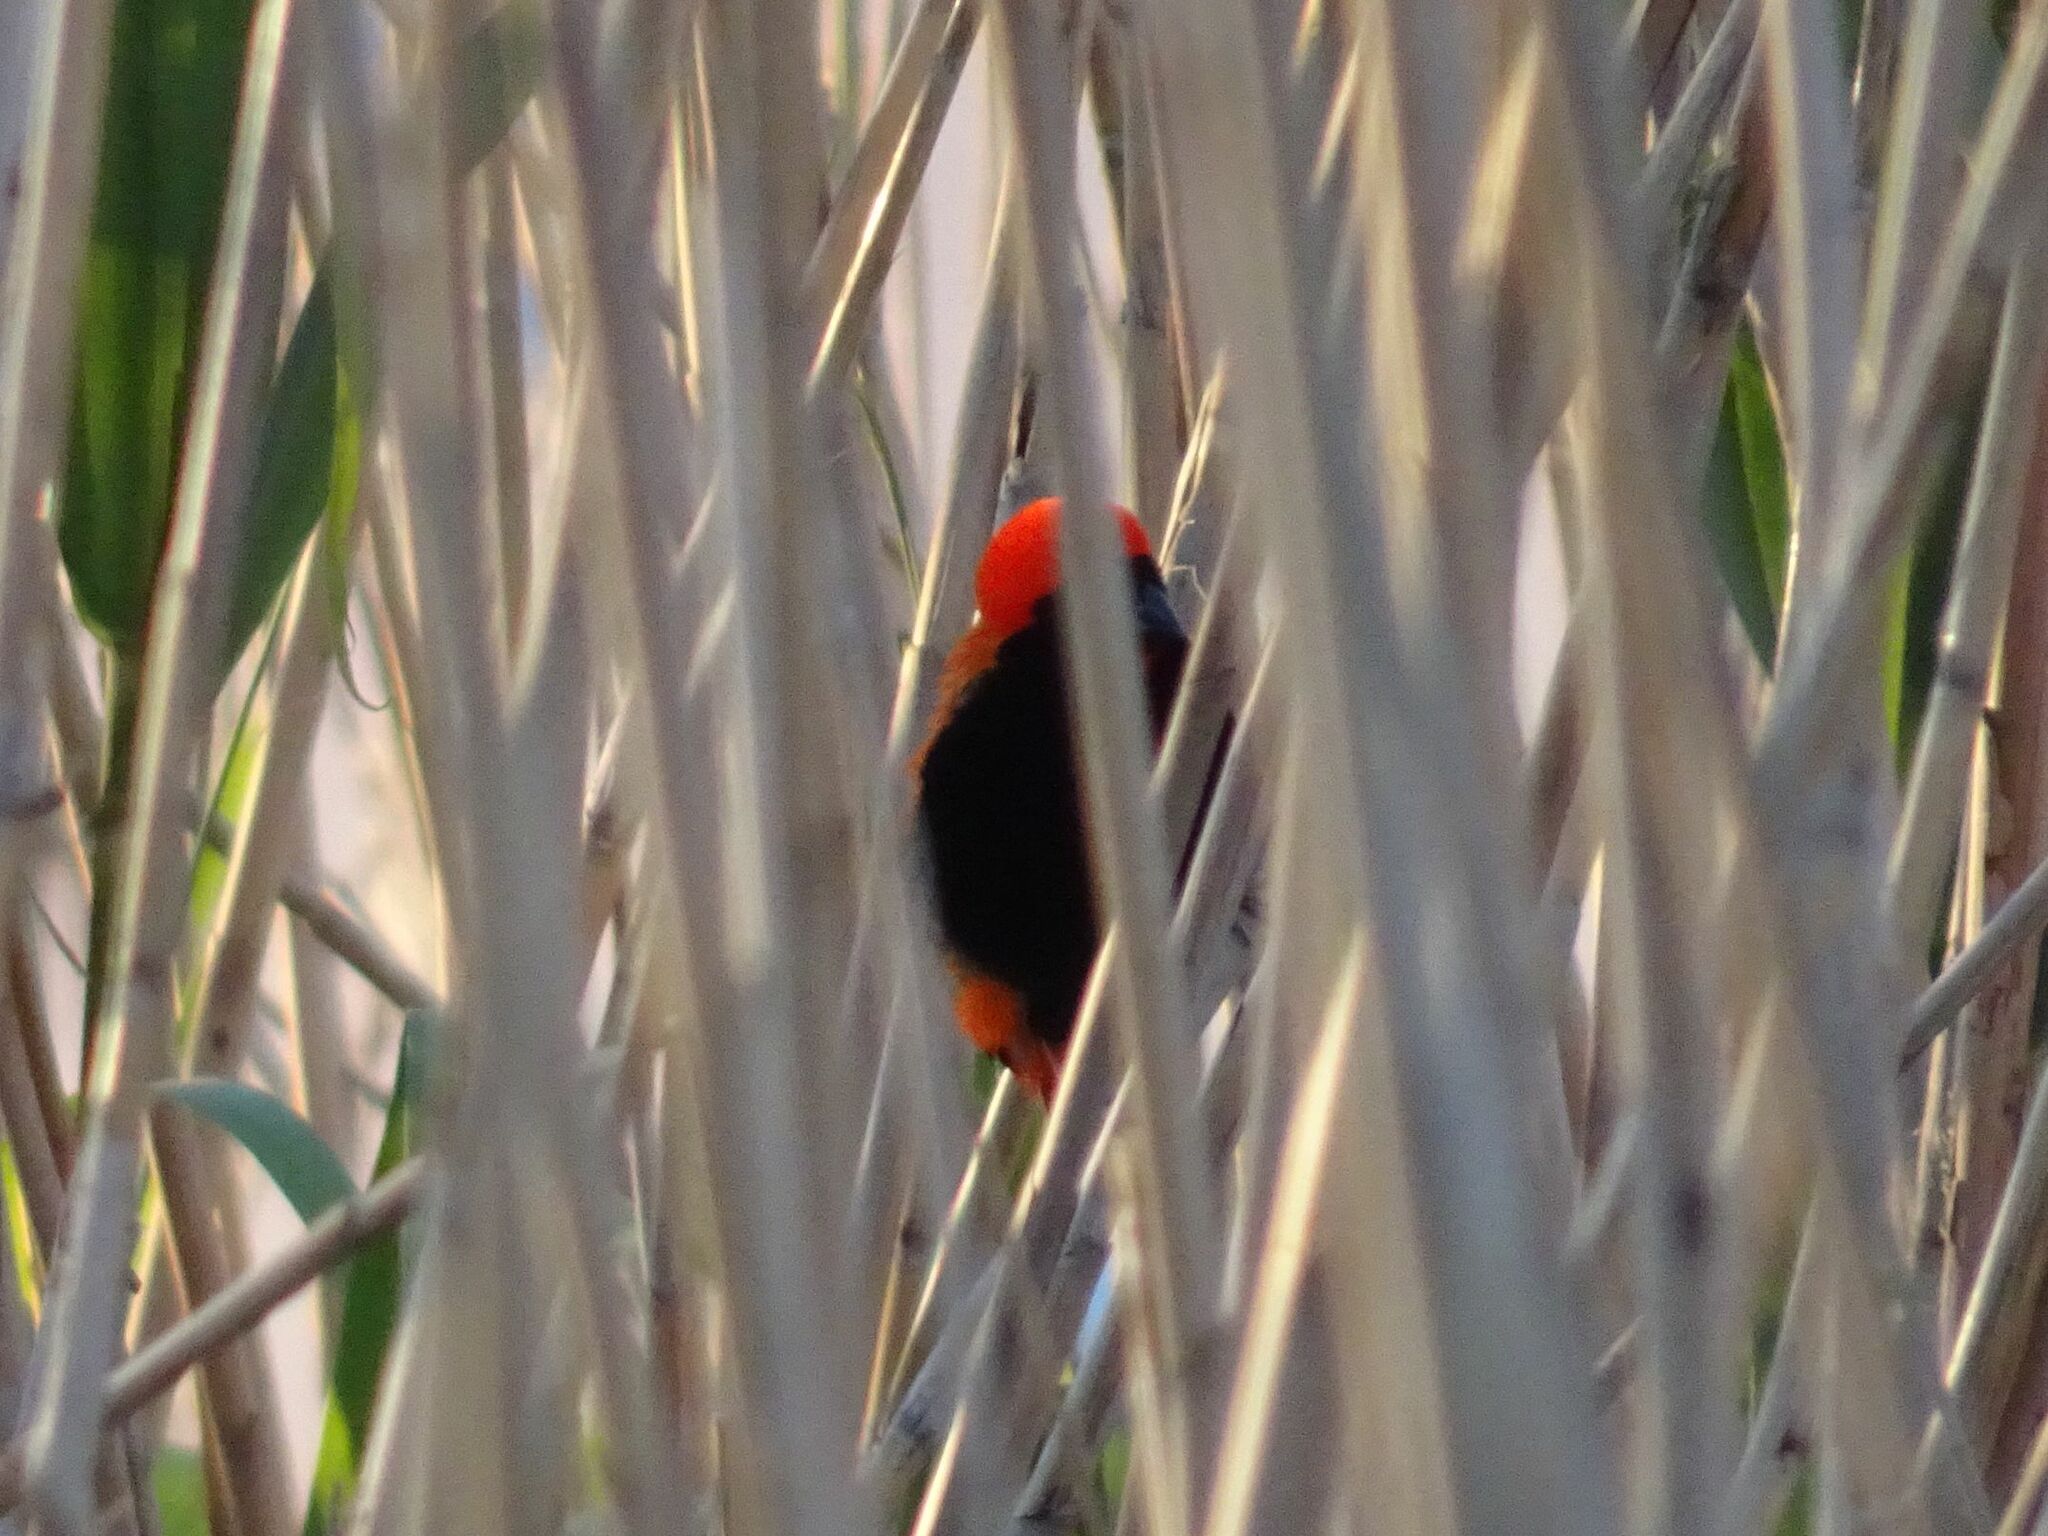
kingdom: Animalia
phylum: Chordata
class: Aves
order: Passeriformes
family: Ploceidae
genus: Euplectes
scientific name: Euplectes orix
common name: Southern red bishop
